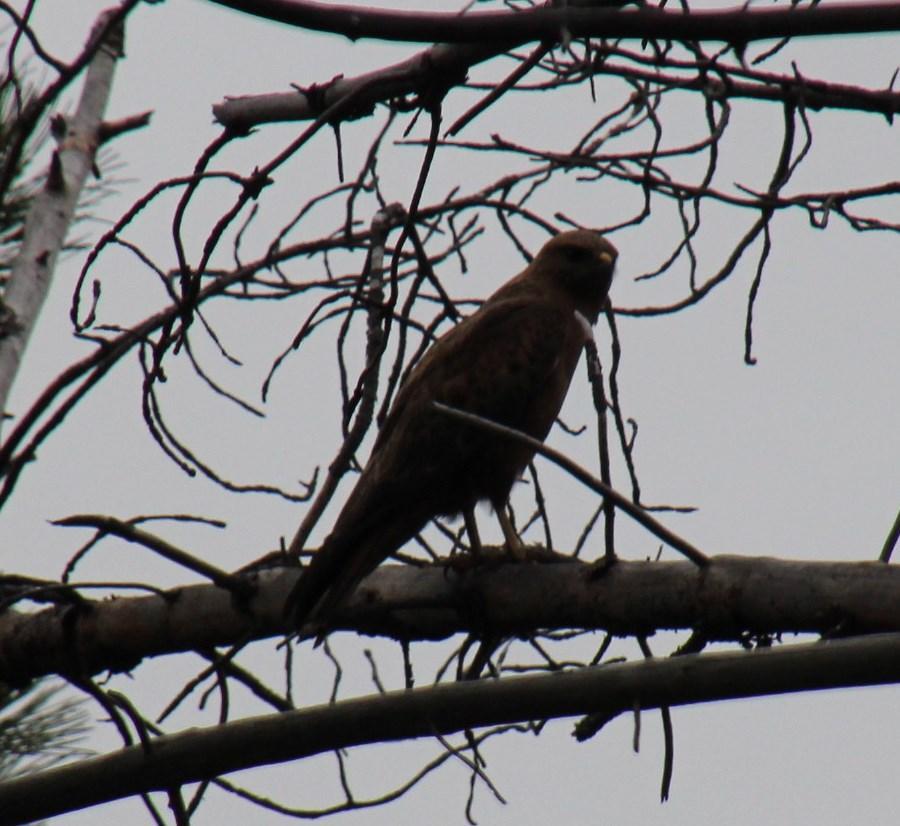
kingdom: Animalia
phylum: Chordata
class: Aves
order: Accipitriformes
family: Accipitridae
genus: Buteo
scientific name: Buteo buteo
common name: Common buzzard
